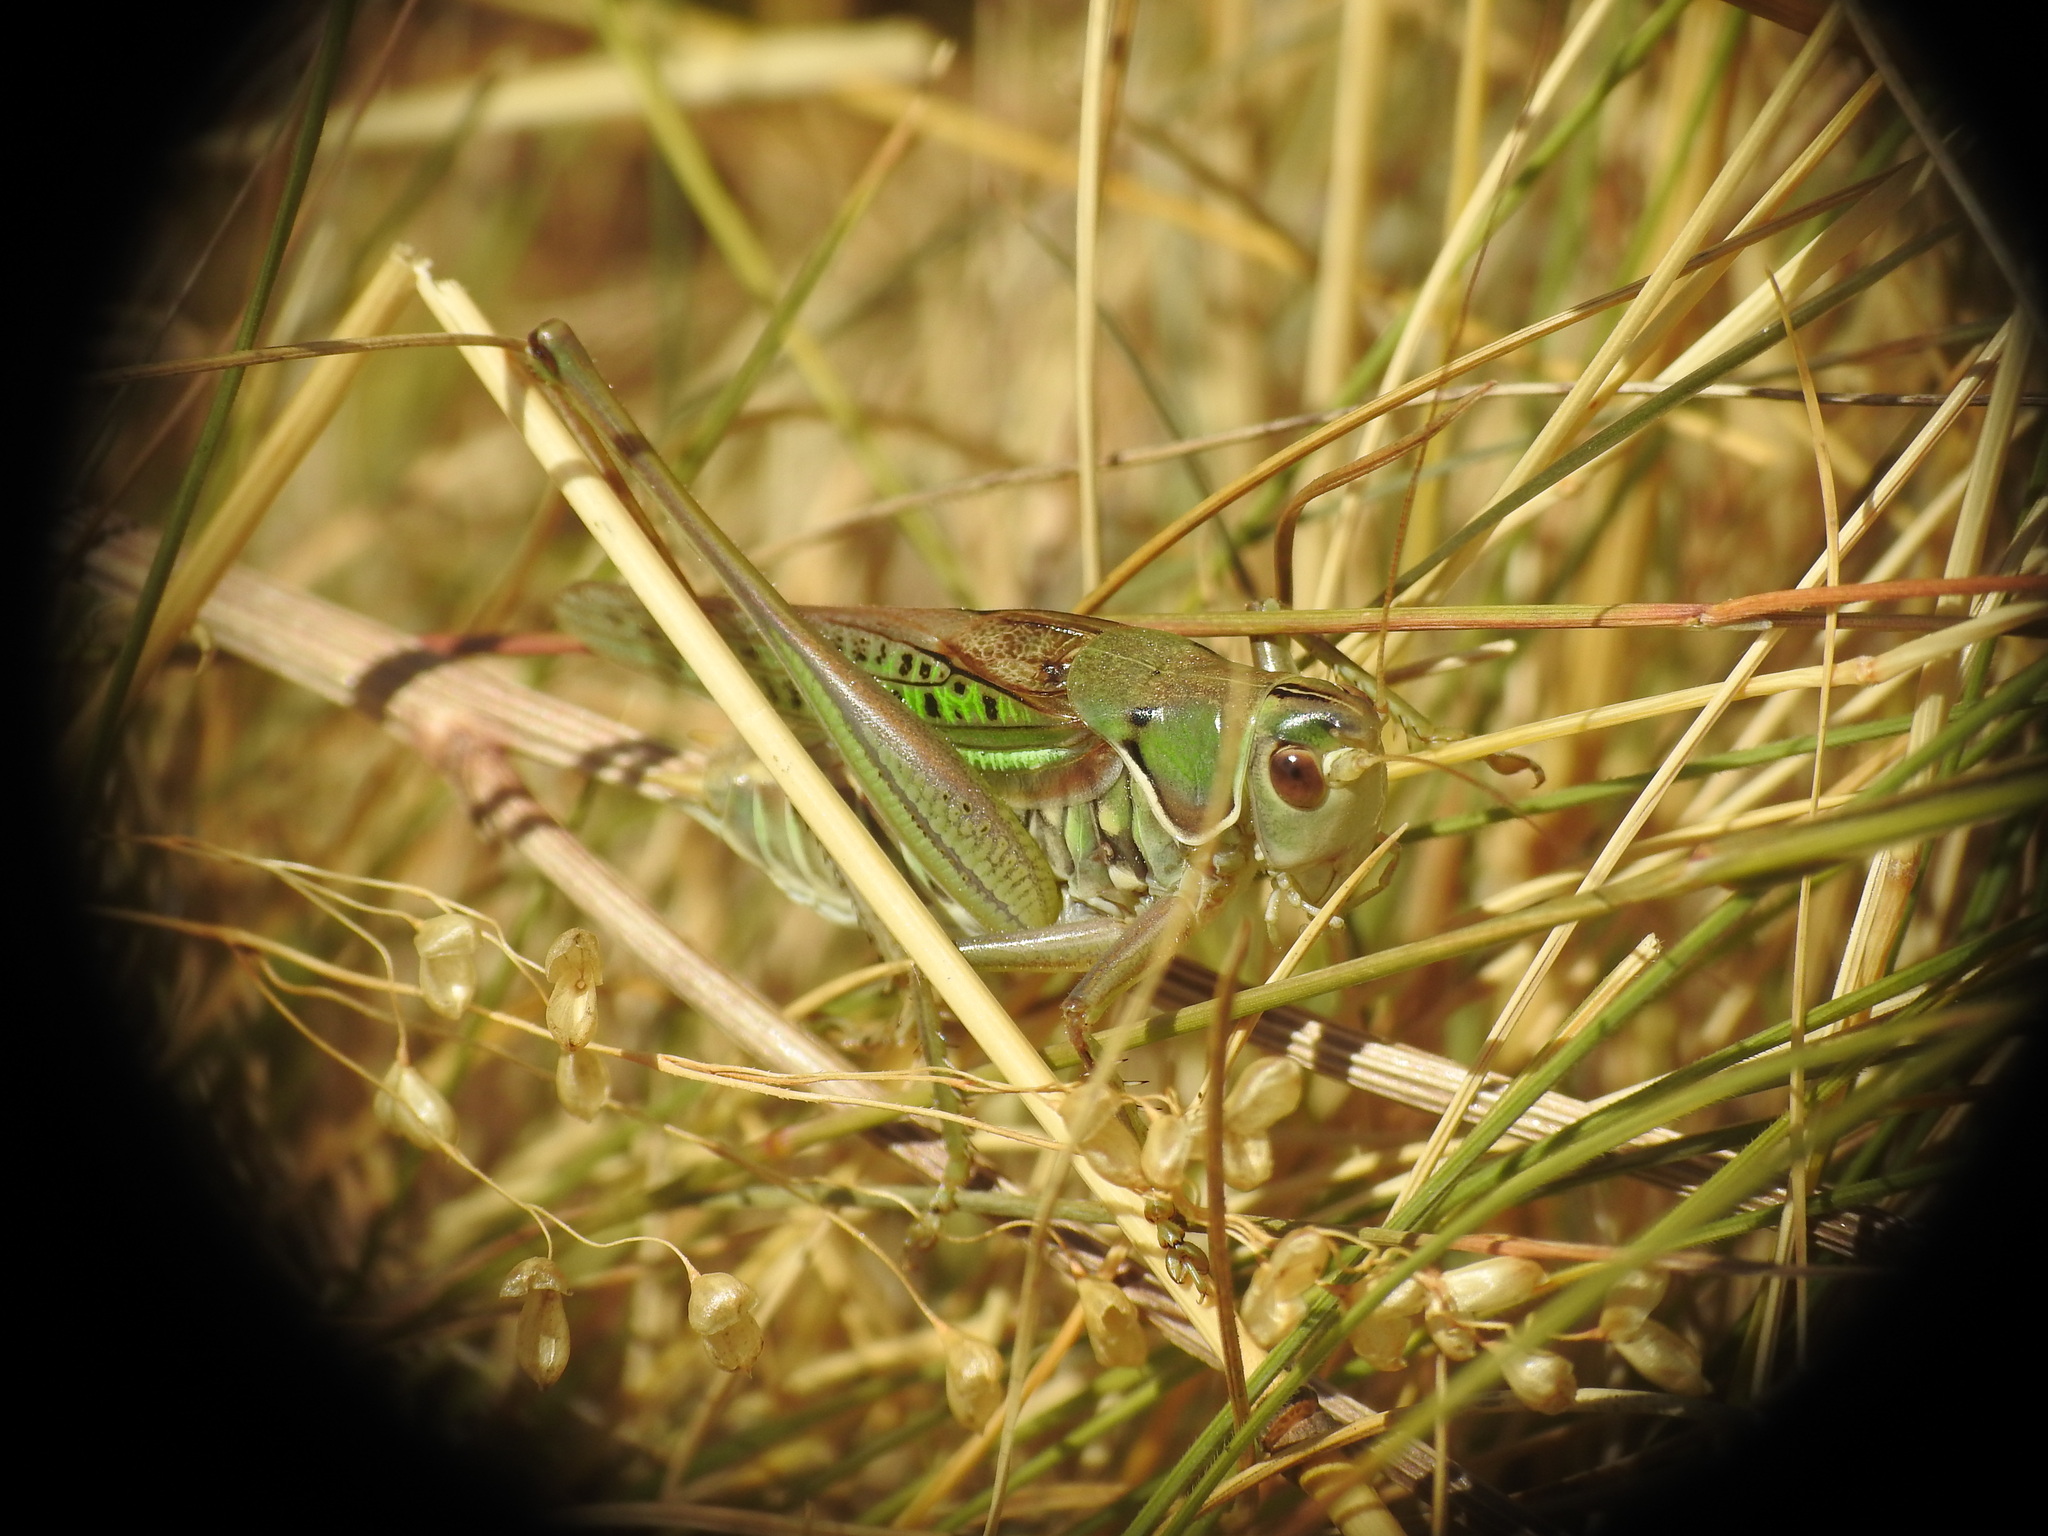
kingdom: Animalia
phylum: Arthropoda
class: Insecta
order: Orthoptera
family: Tettigoniidae
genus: Gampsocleis
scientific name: Gampsocleis glabra
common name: Heath bushcricket
